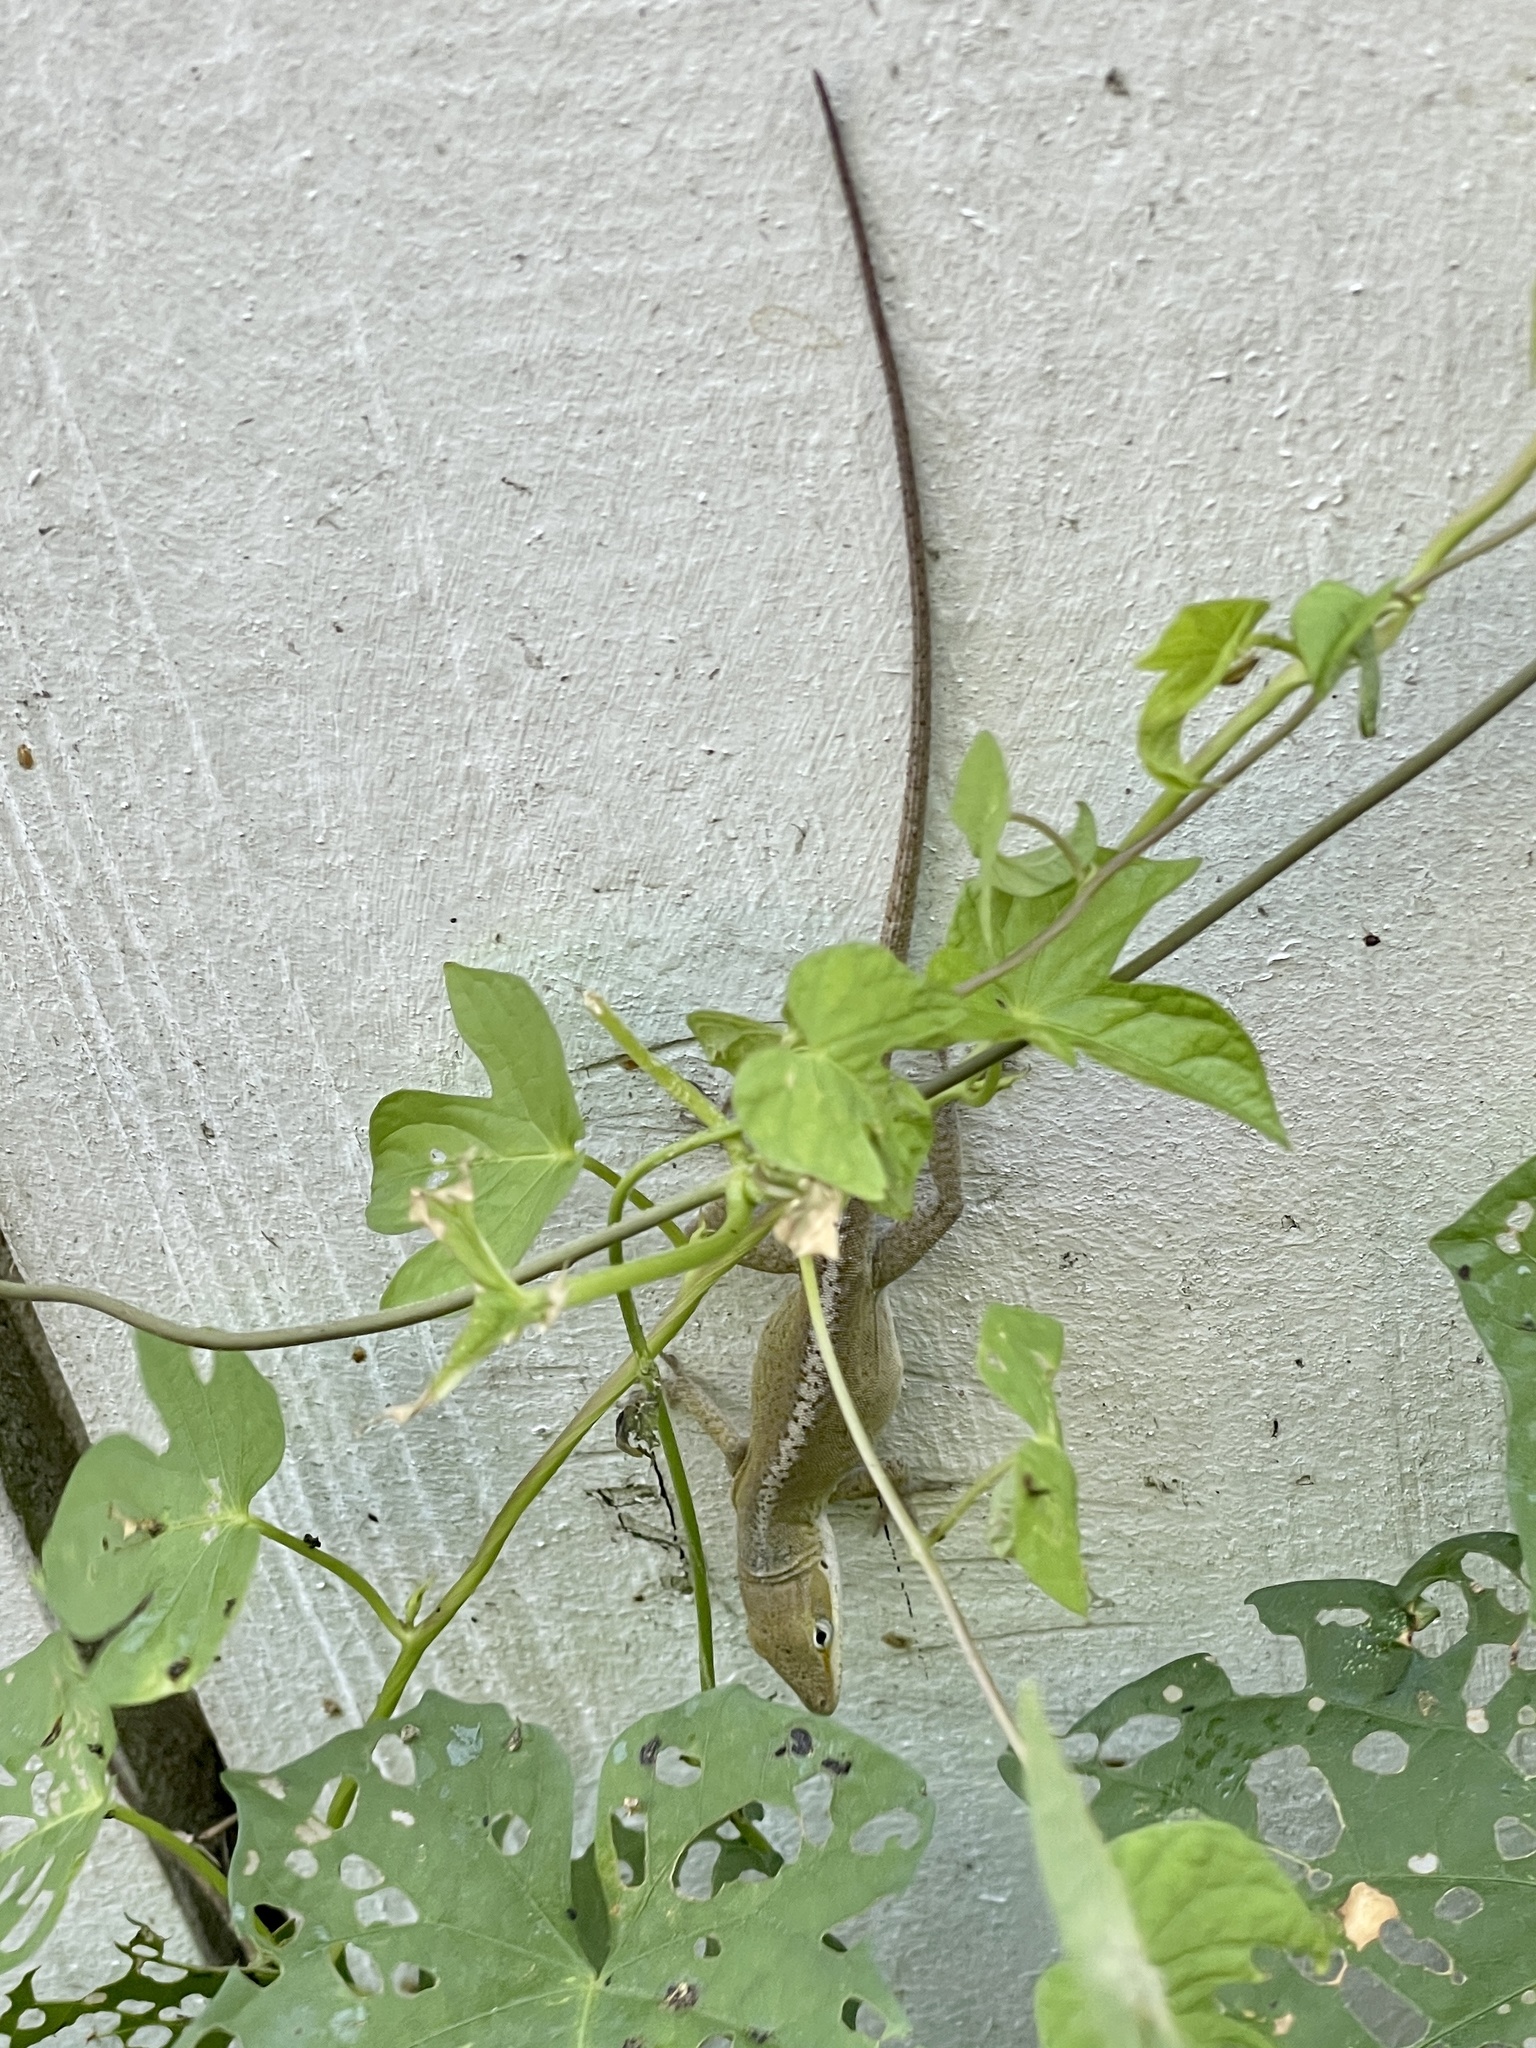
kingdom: Animalia
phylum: Chordata
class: Squamata
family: Dactyloidae
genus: Anolis
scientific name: Anolis carolinensis
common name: Green anole
